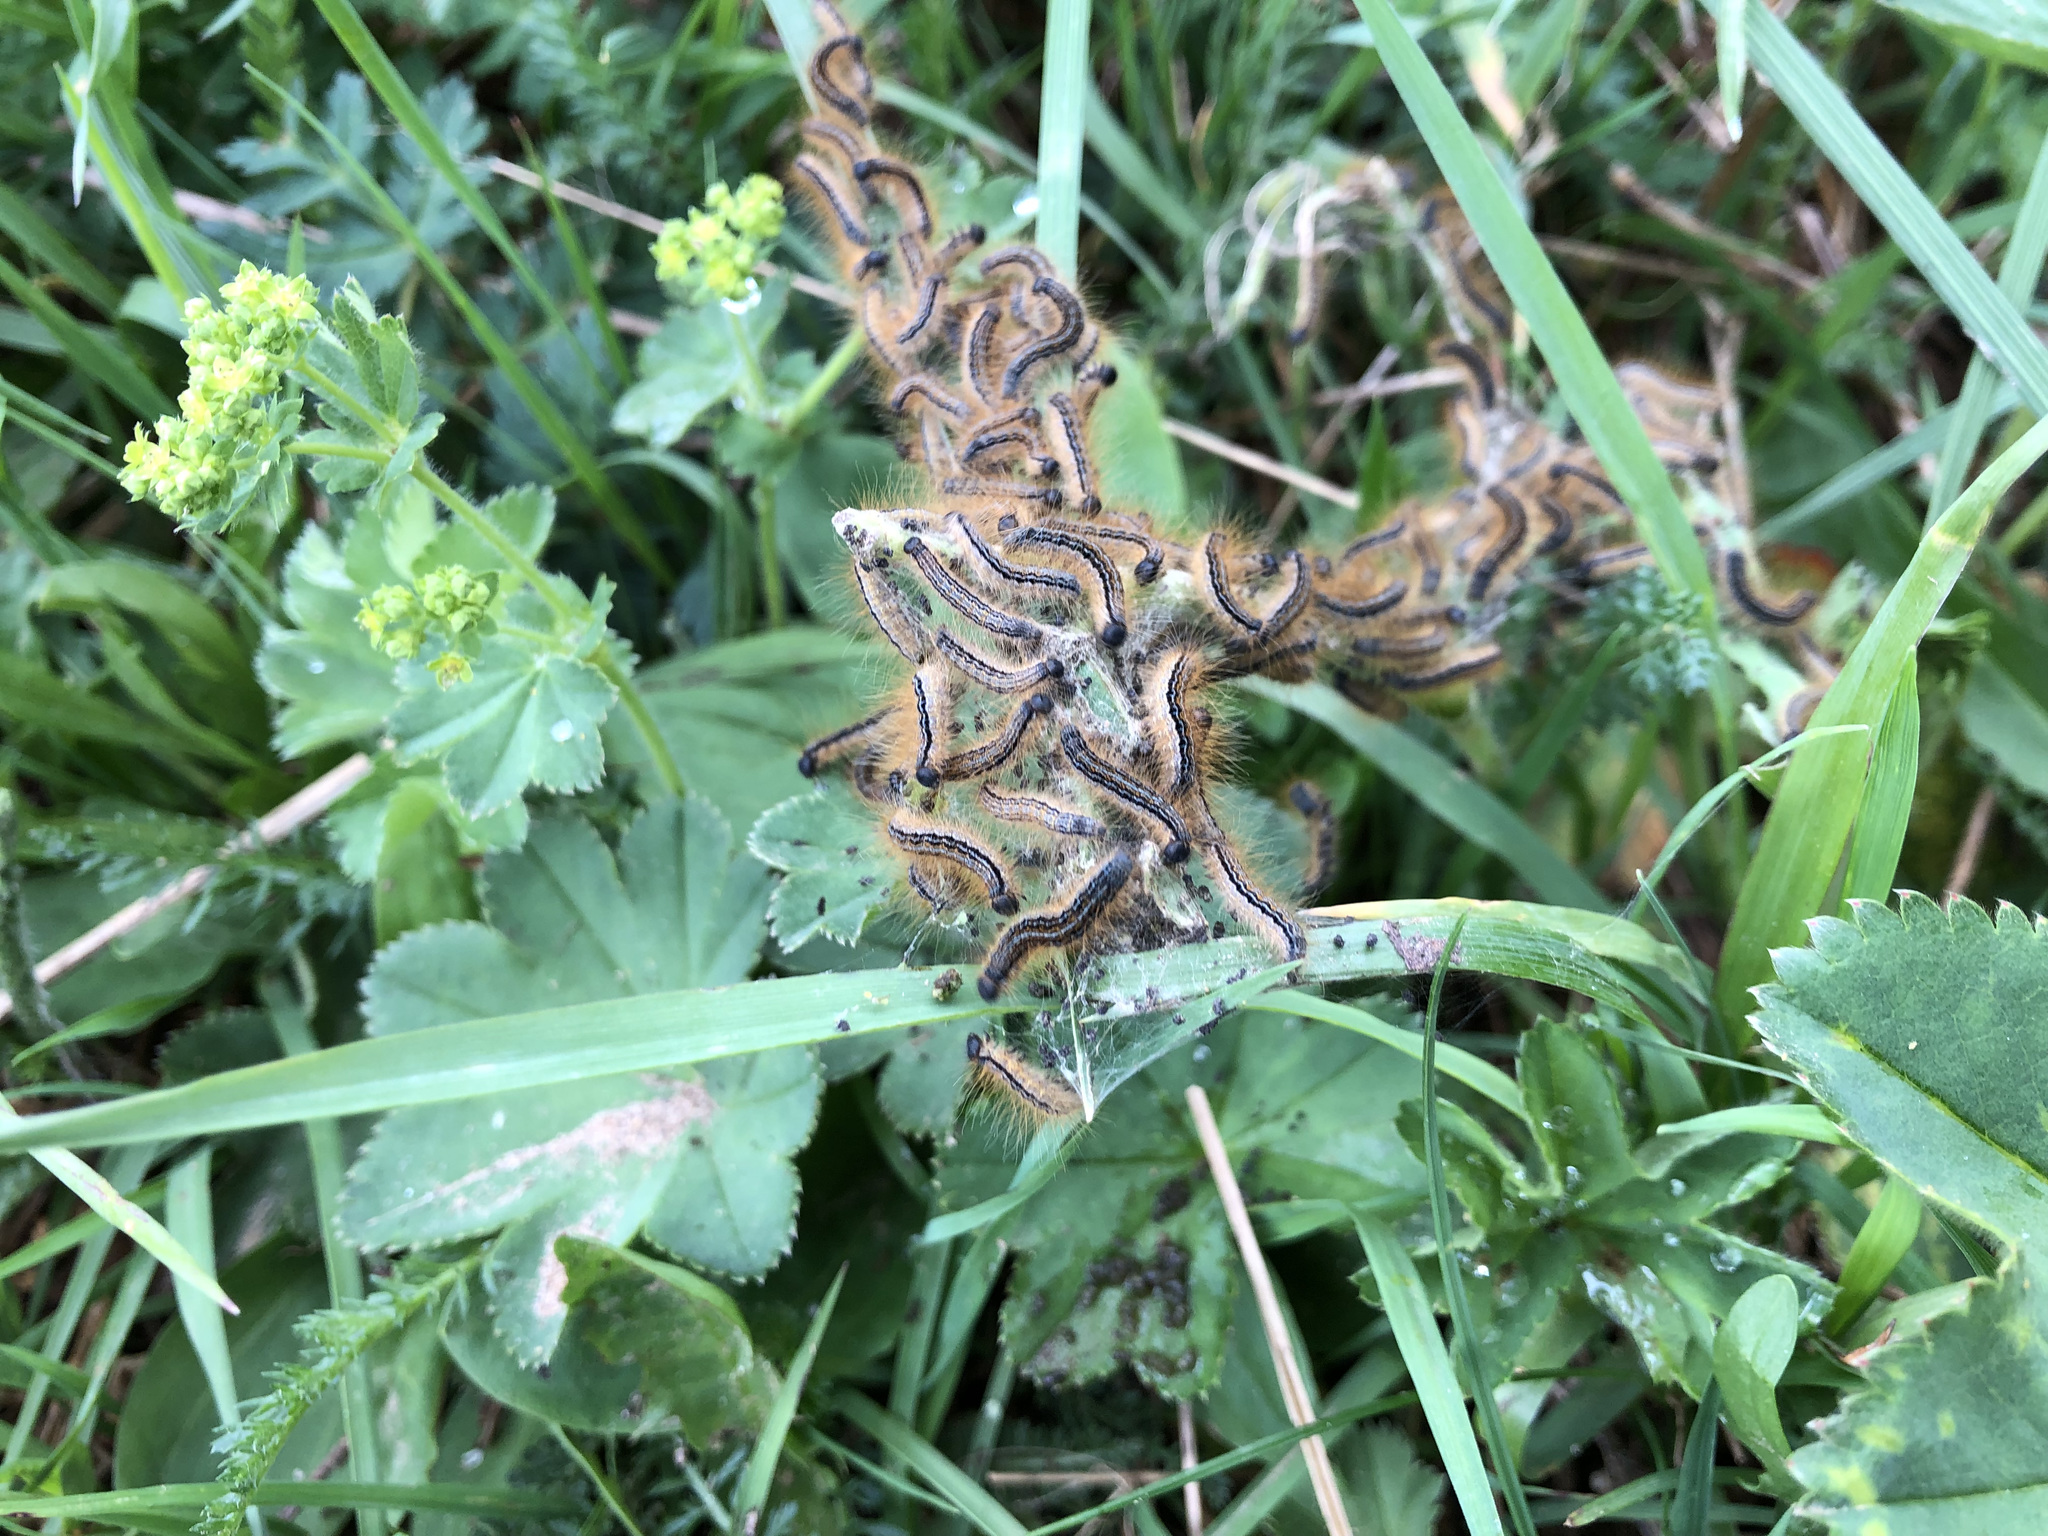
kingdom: Animalia
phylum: Arthropoda
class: Insecta
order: Lepidoptera
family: Lasiocampidae
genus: Malacosoma
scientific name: Malacosoma alpicola
